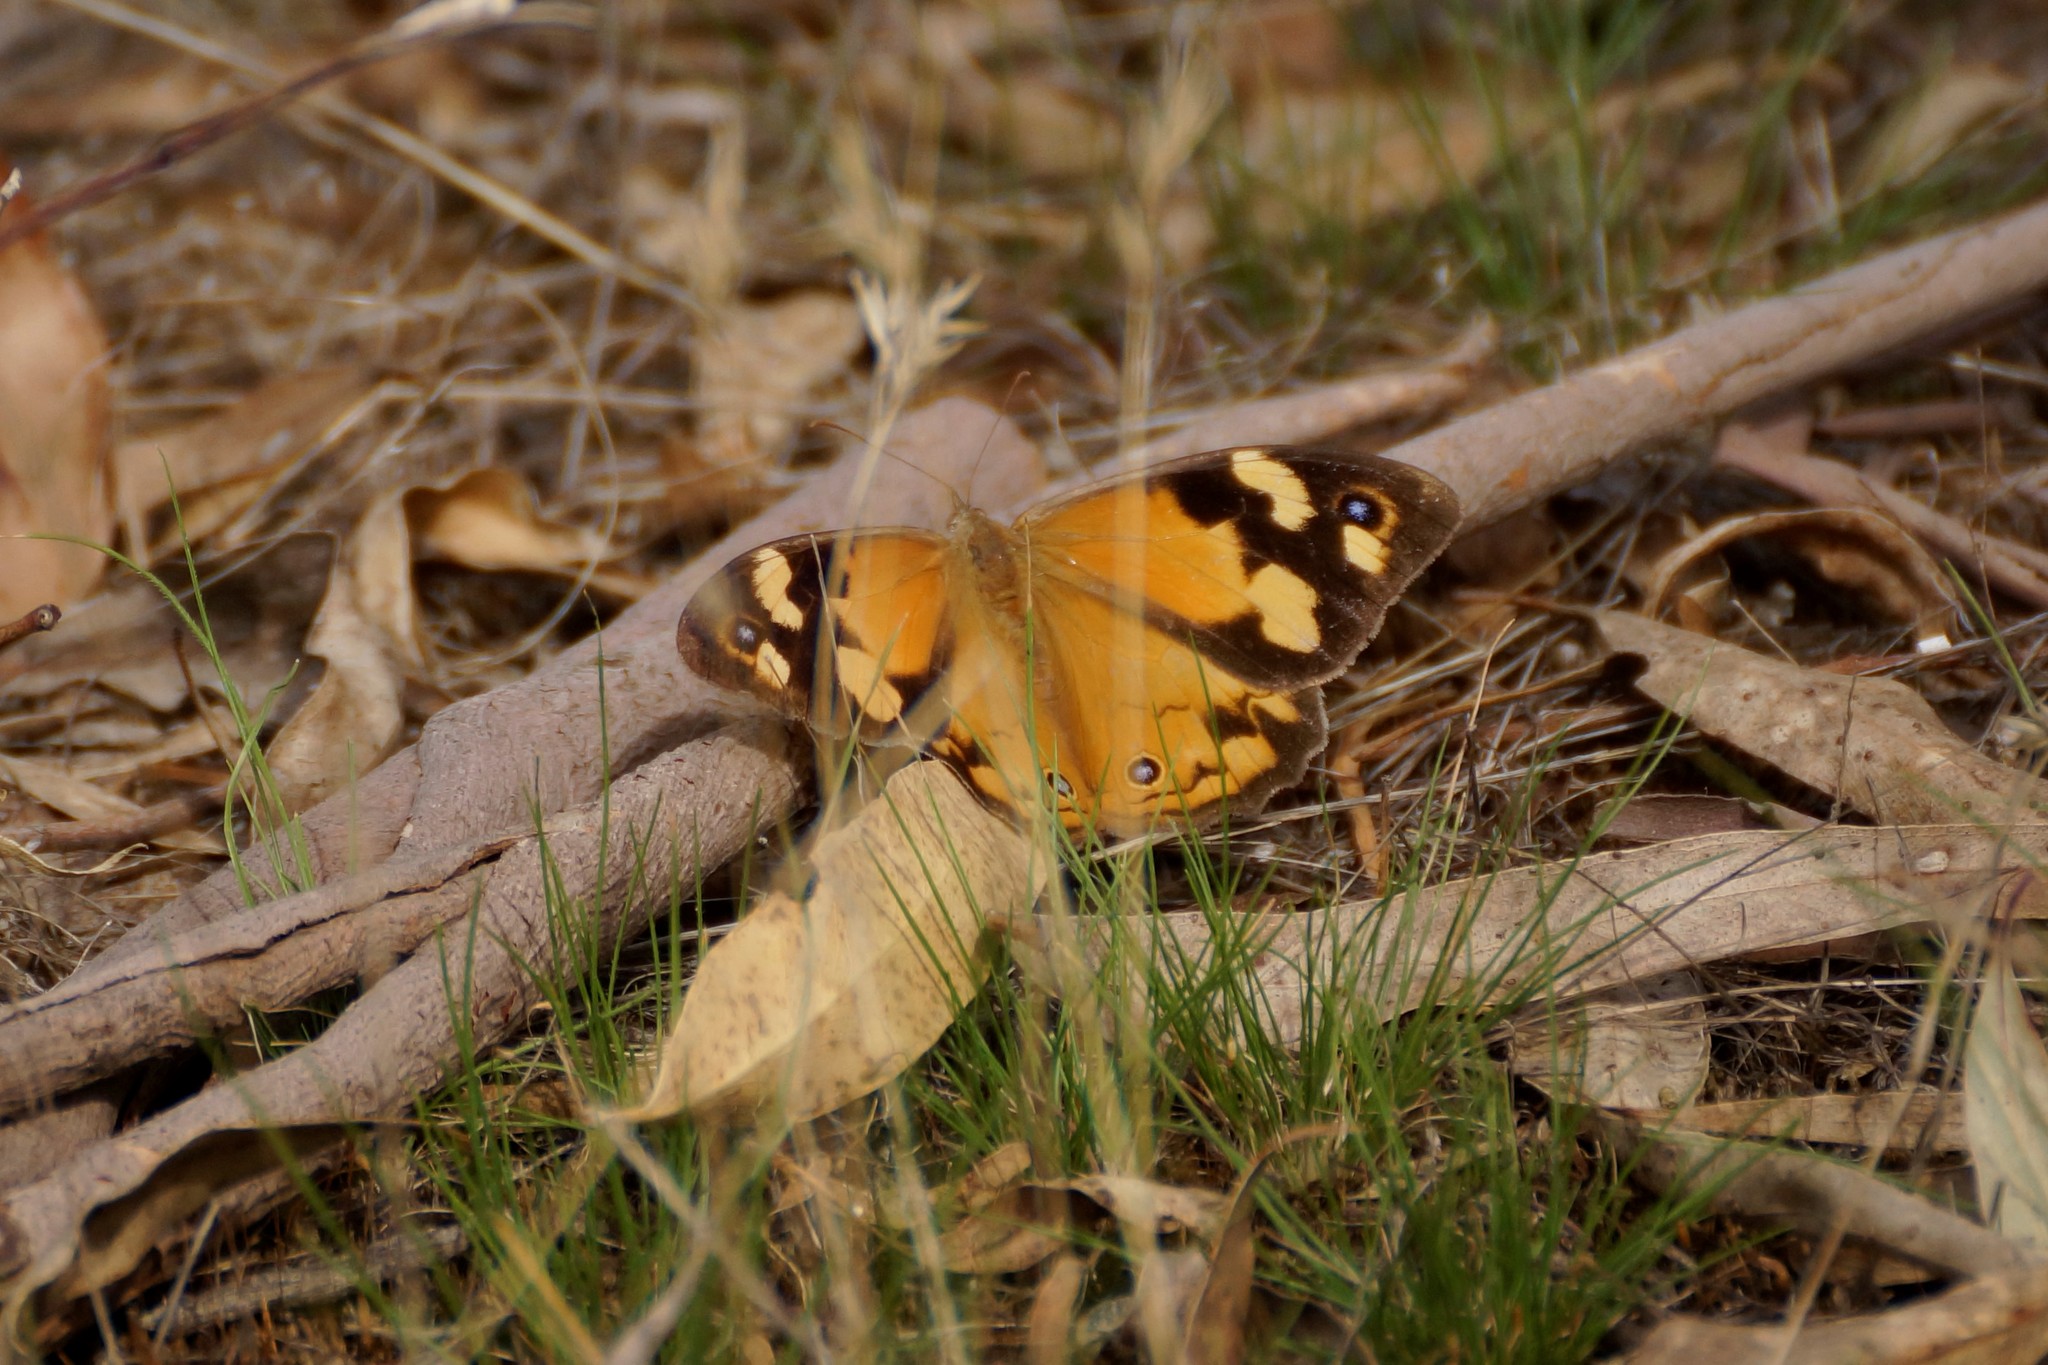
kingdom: Animalia
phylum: Arthropoda
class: Insecta
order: Lepidoptera
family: Nymphalidae
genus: Heteronympha
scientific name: Heteronympha merope
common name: Common brown
